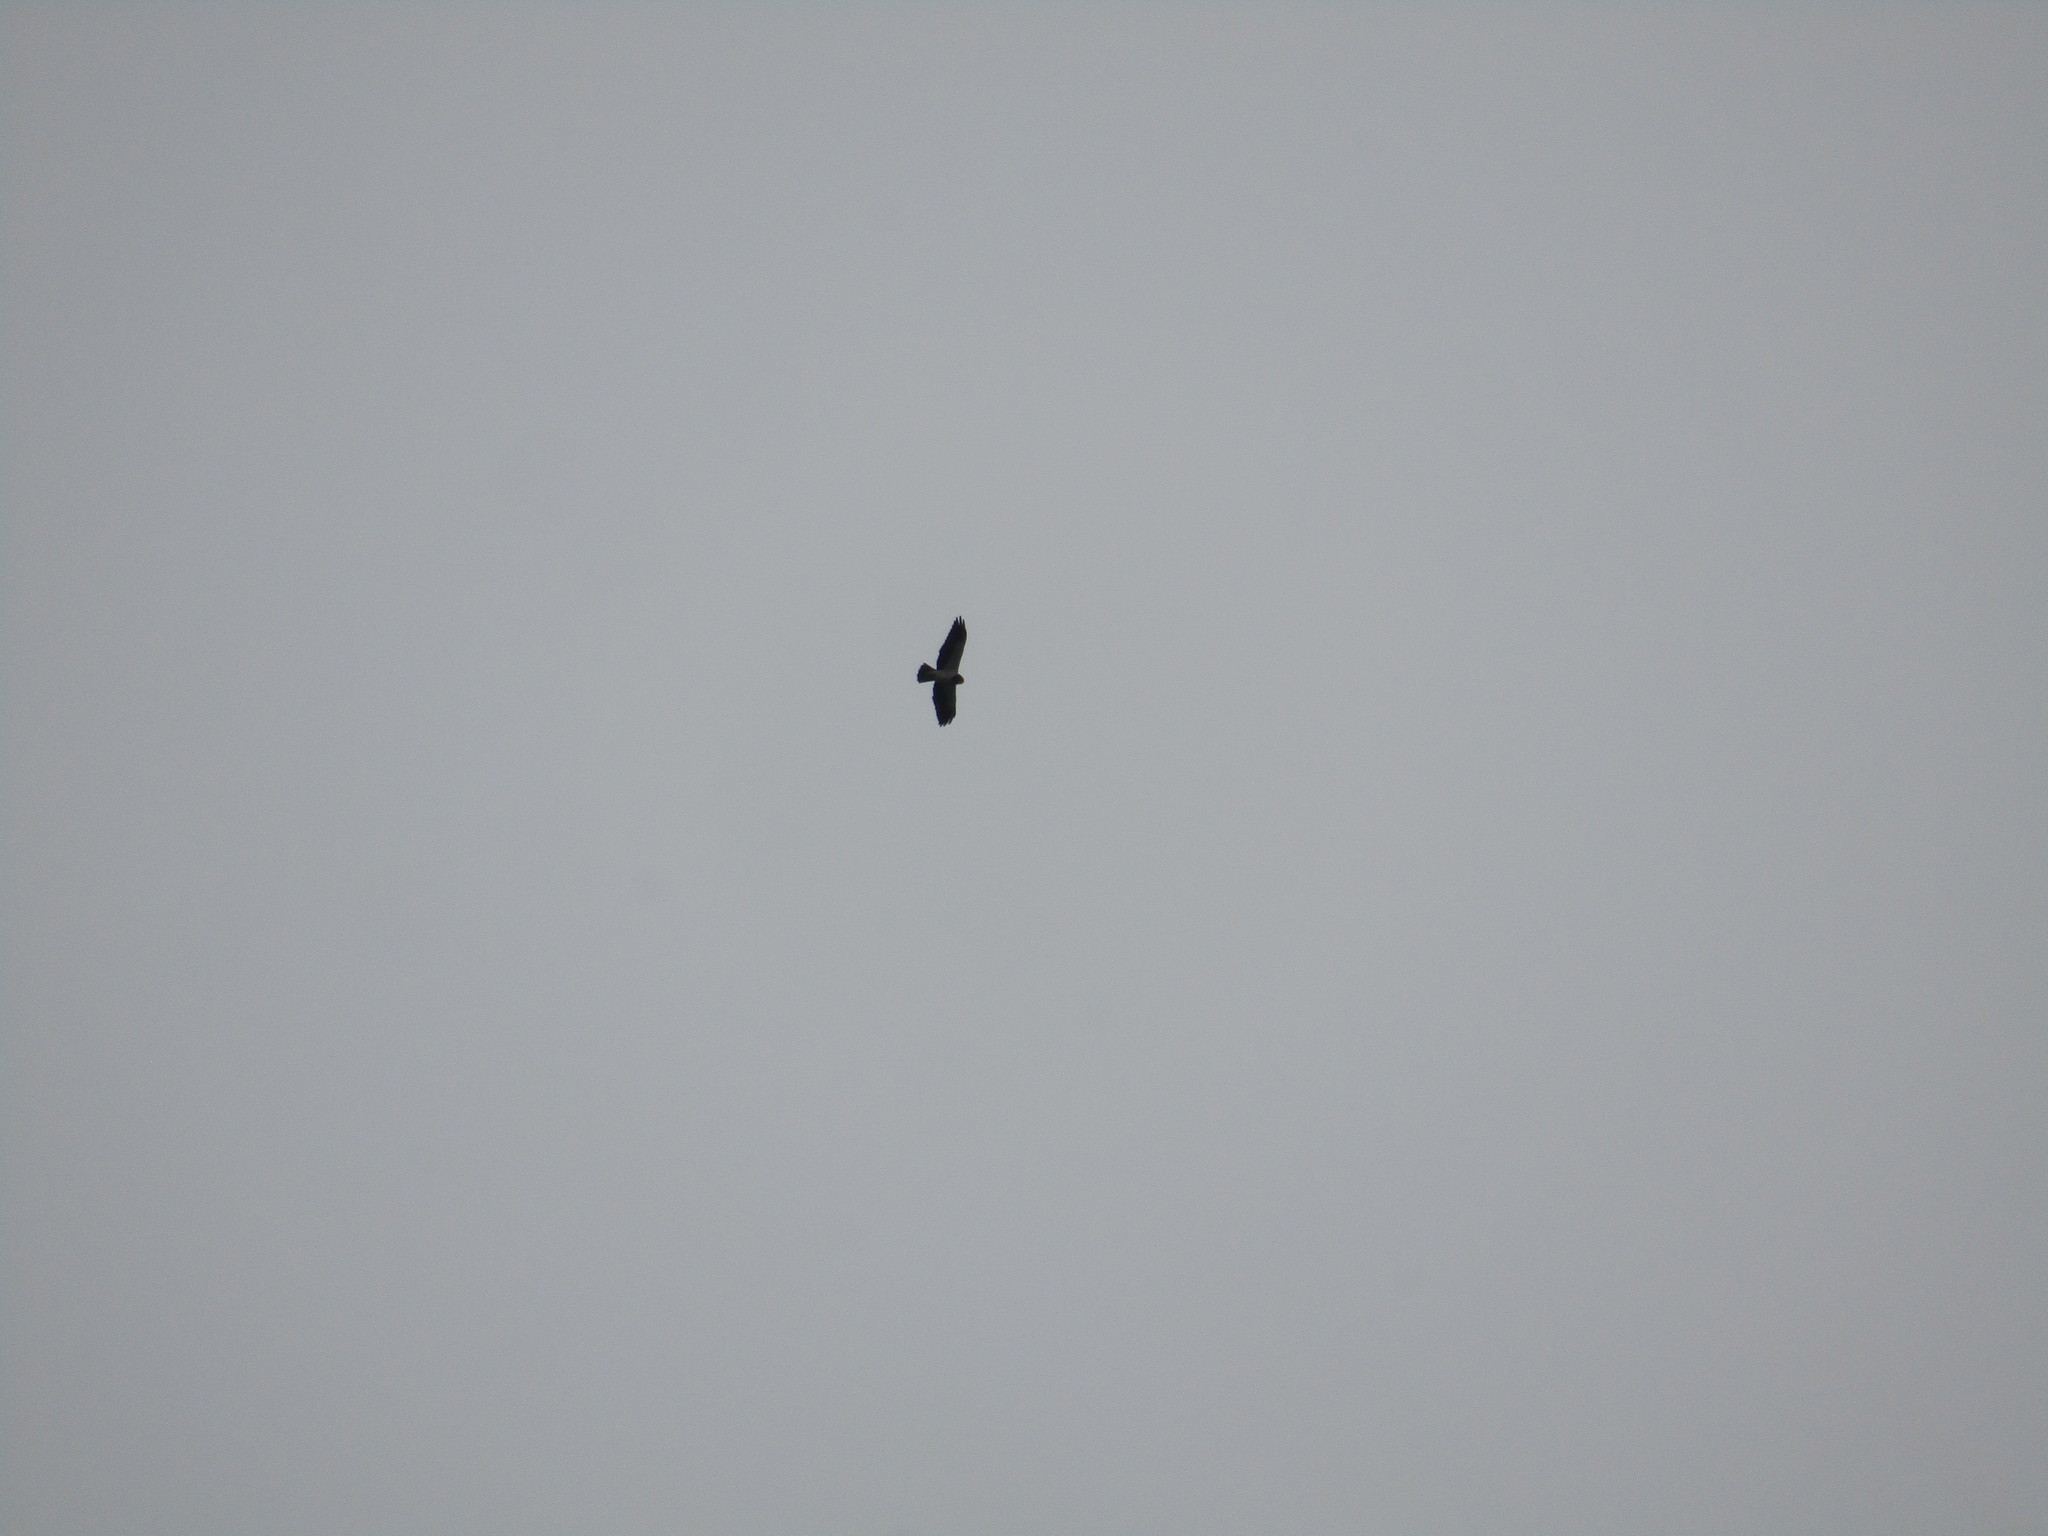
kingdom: Animalia
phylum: Chordata
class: Aves
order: Accipitriformes
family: Accipitridae
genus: Buteo
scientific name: Buteo brachyurus
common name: Short-tailed hawk
